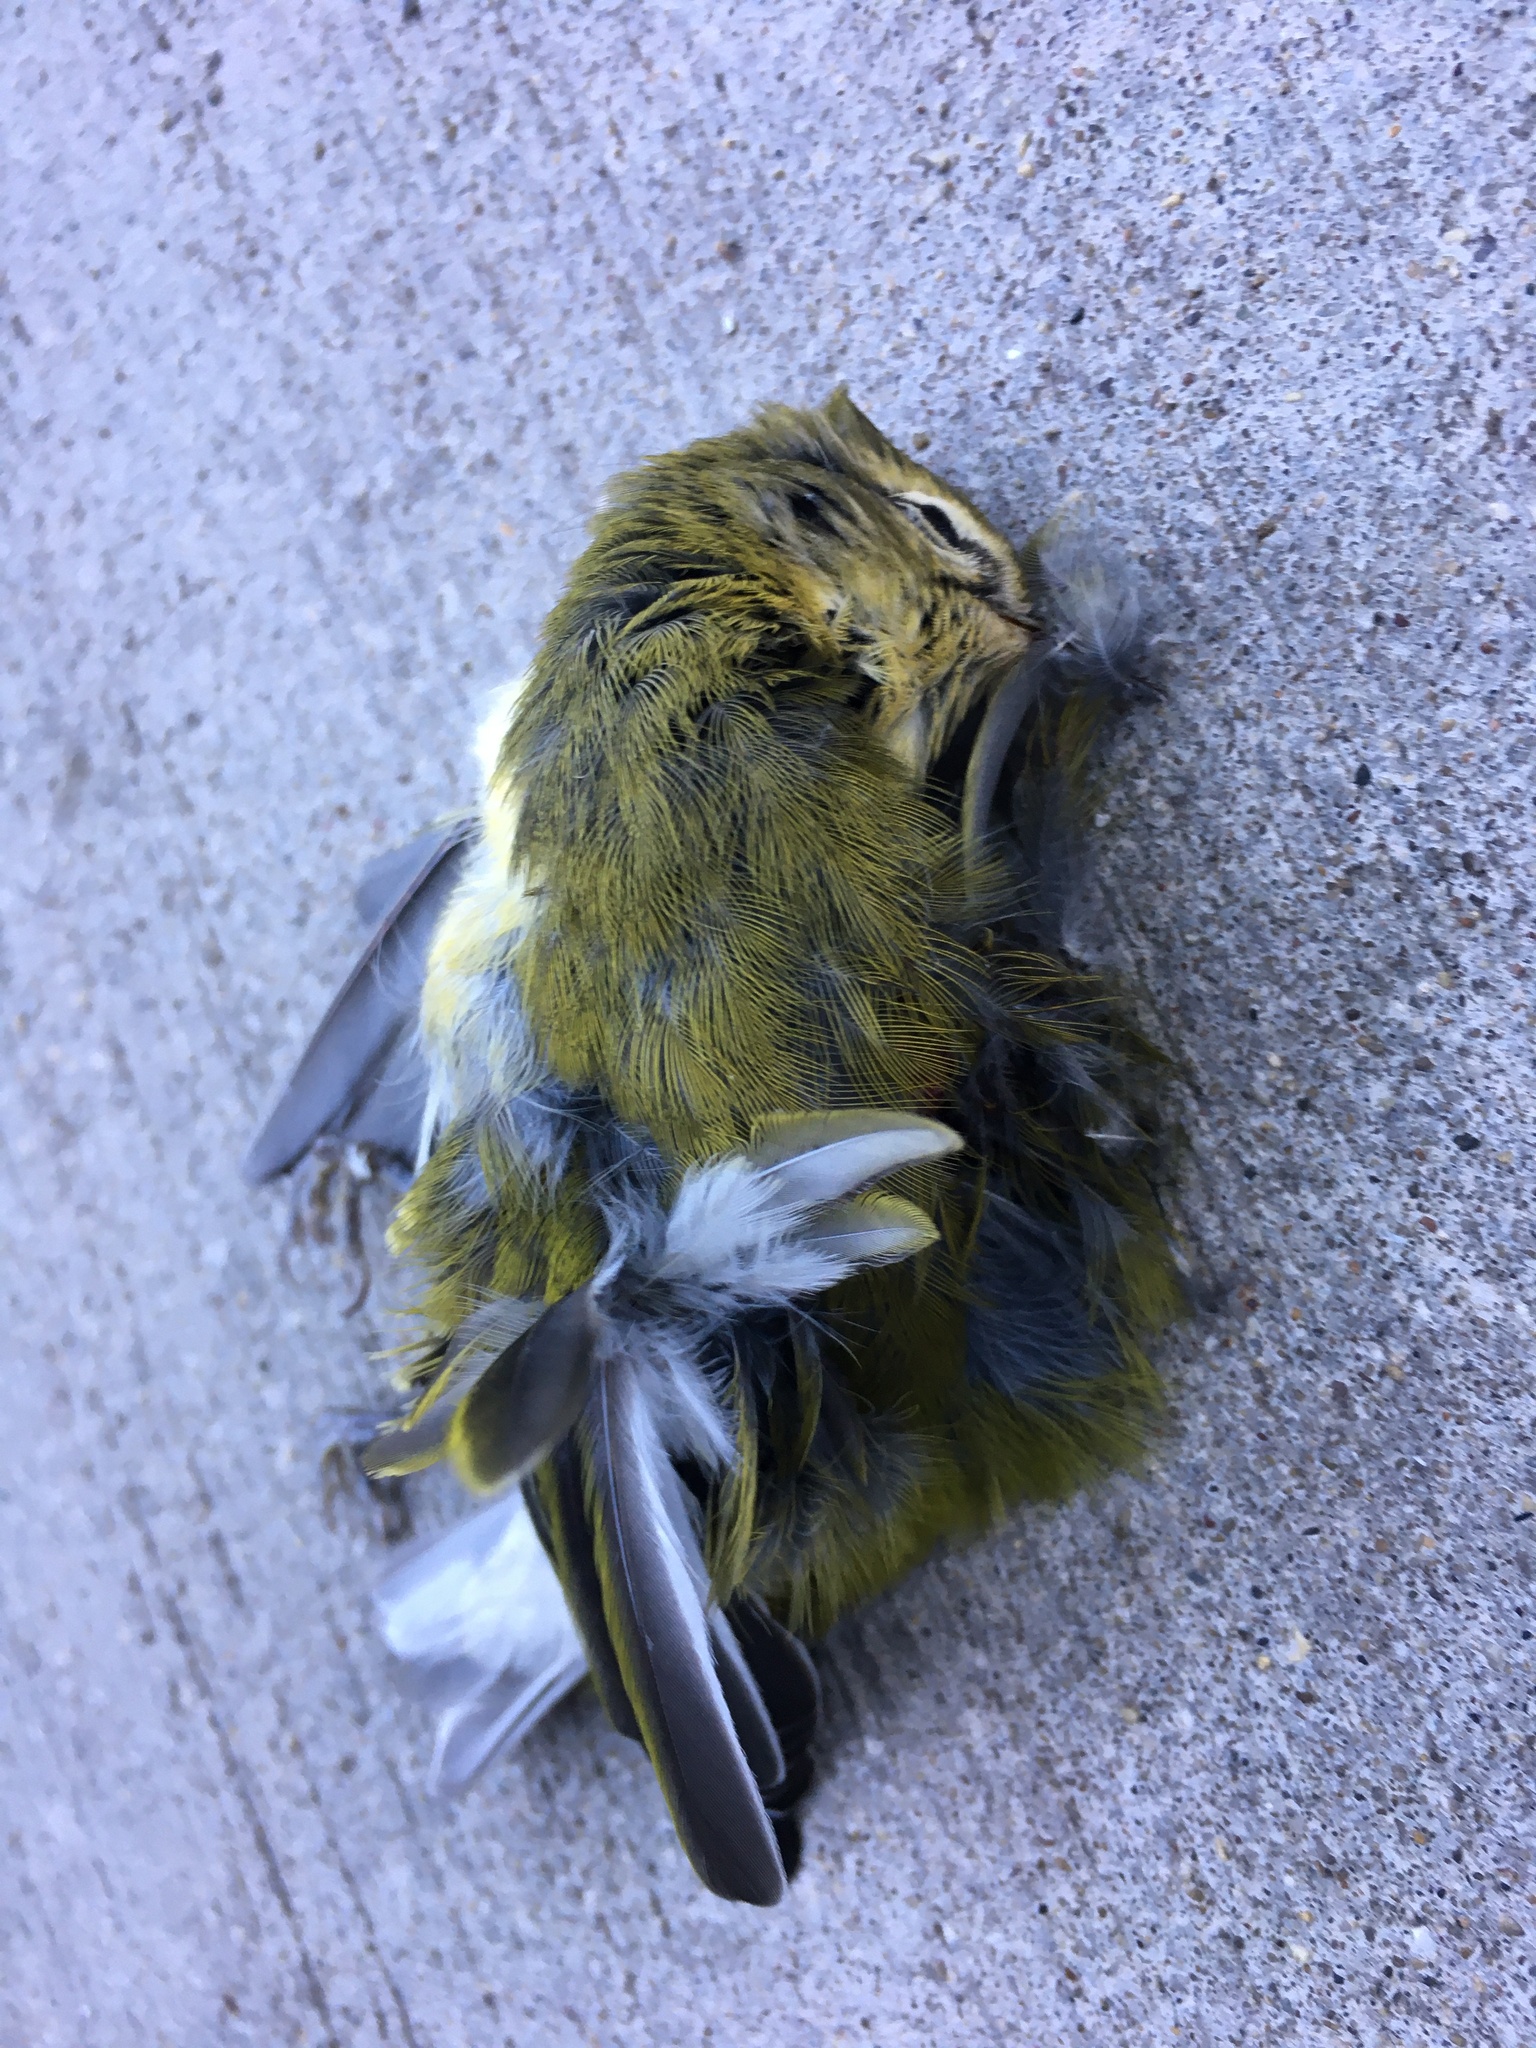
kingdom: Animalia
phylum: Chordata
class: Aves
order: Passeriformes
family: Parulidae
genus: Leiothlypis
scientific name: Leiothlypis peregrina
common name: Tennessee warbler
